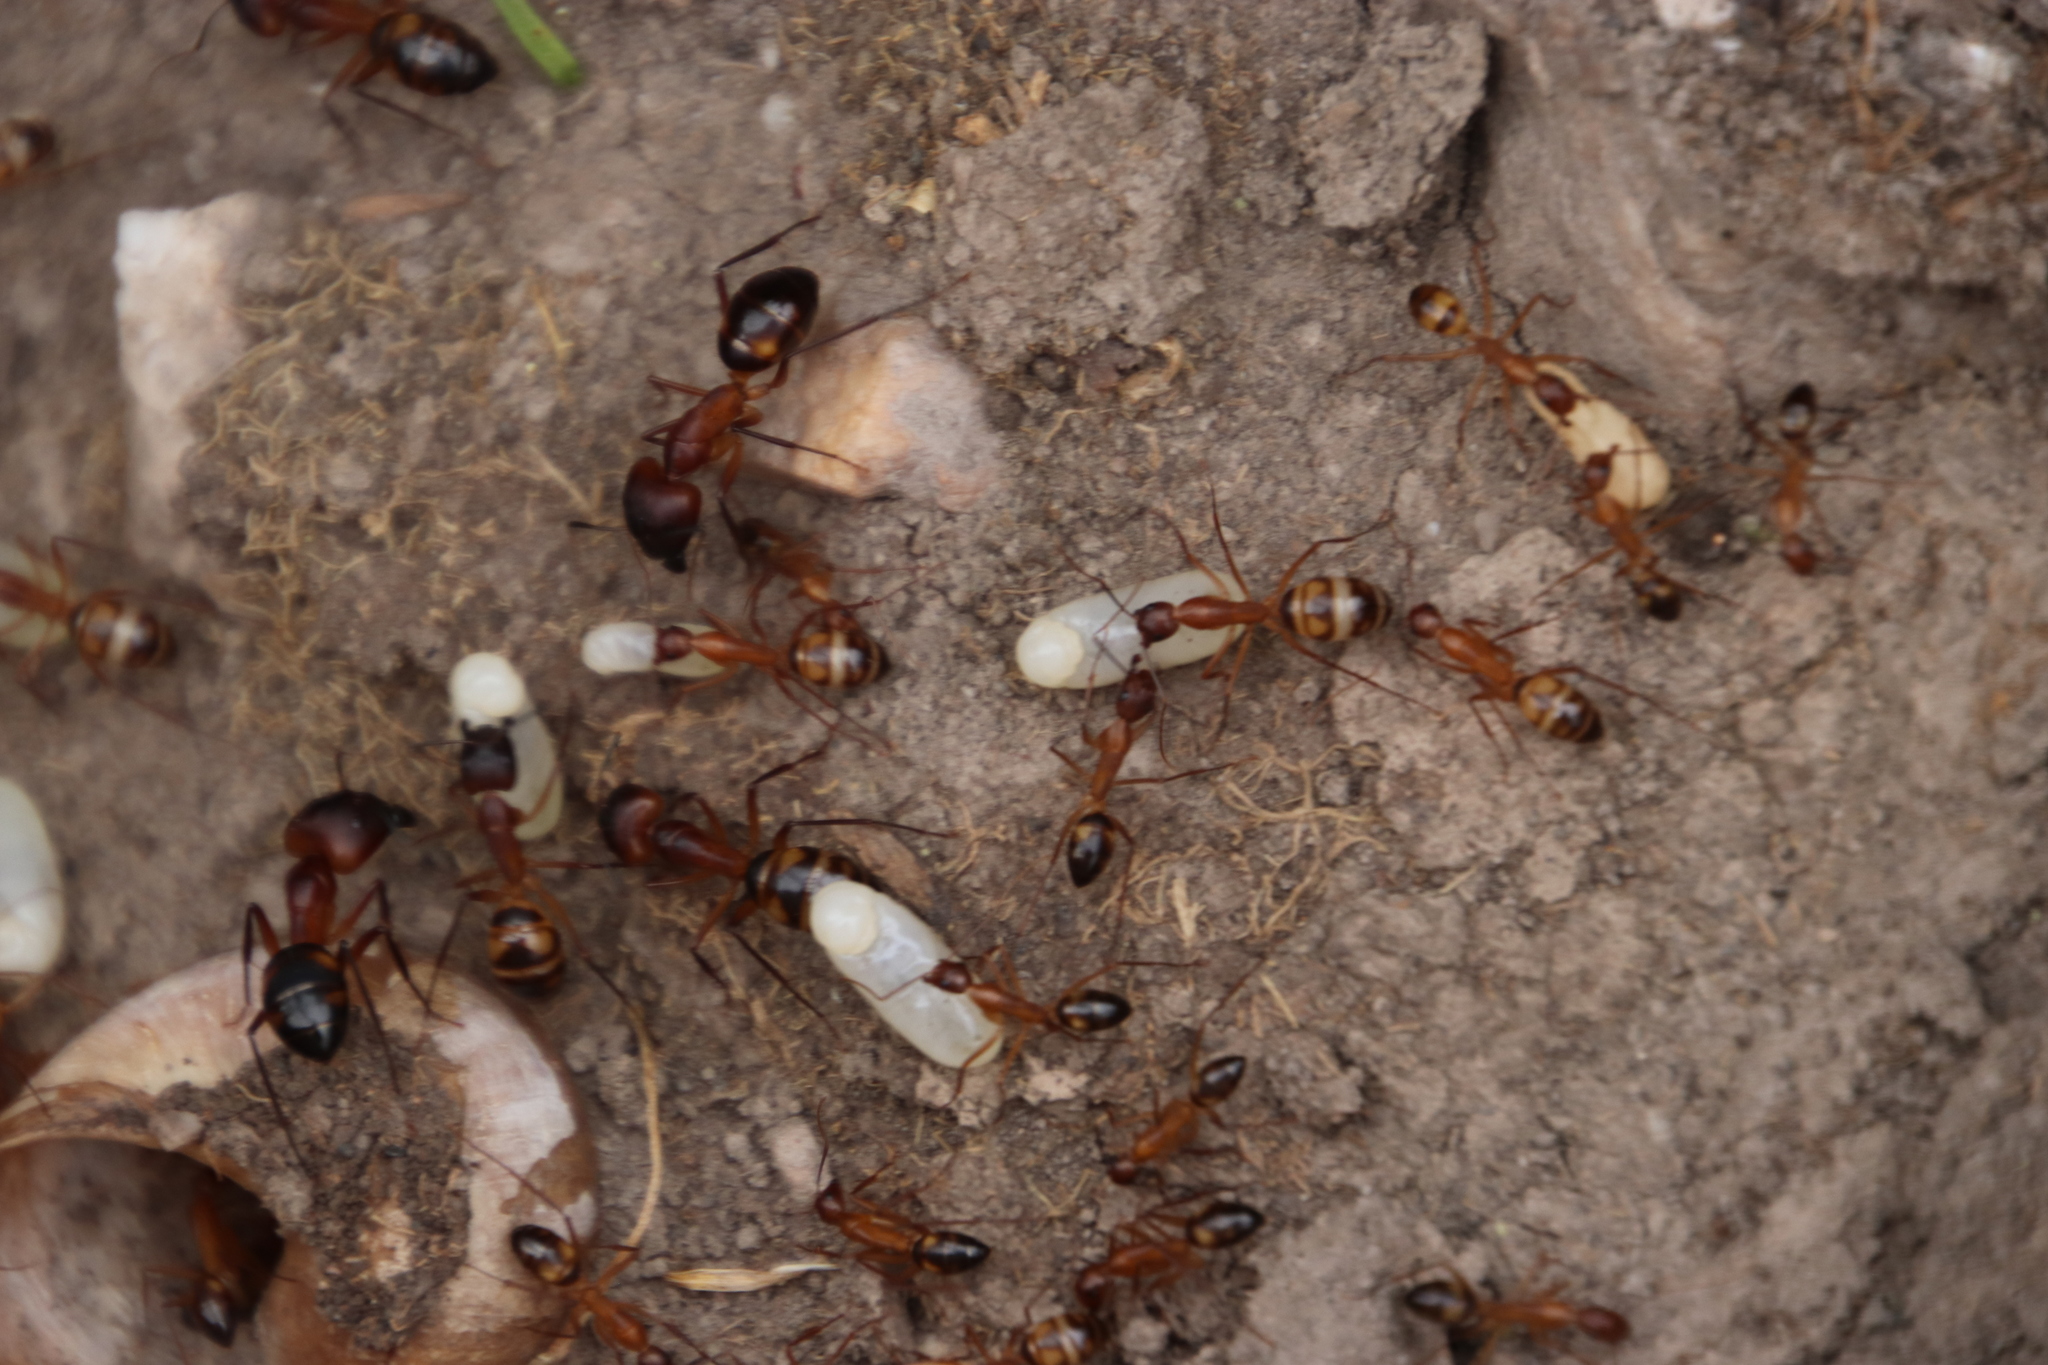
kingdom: Animalia
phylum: Arthropoda
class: Insecta
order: Hymenoptera
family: Formicidae
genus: Camponotus
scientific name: Camponotus maculatus
